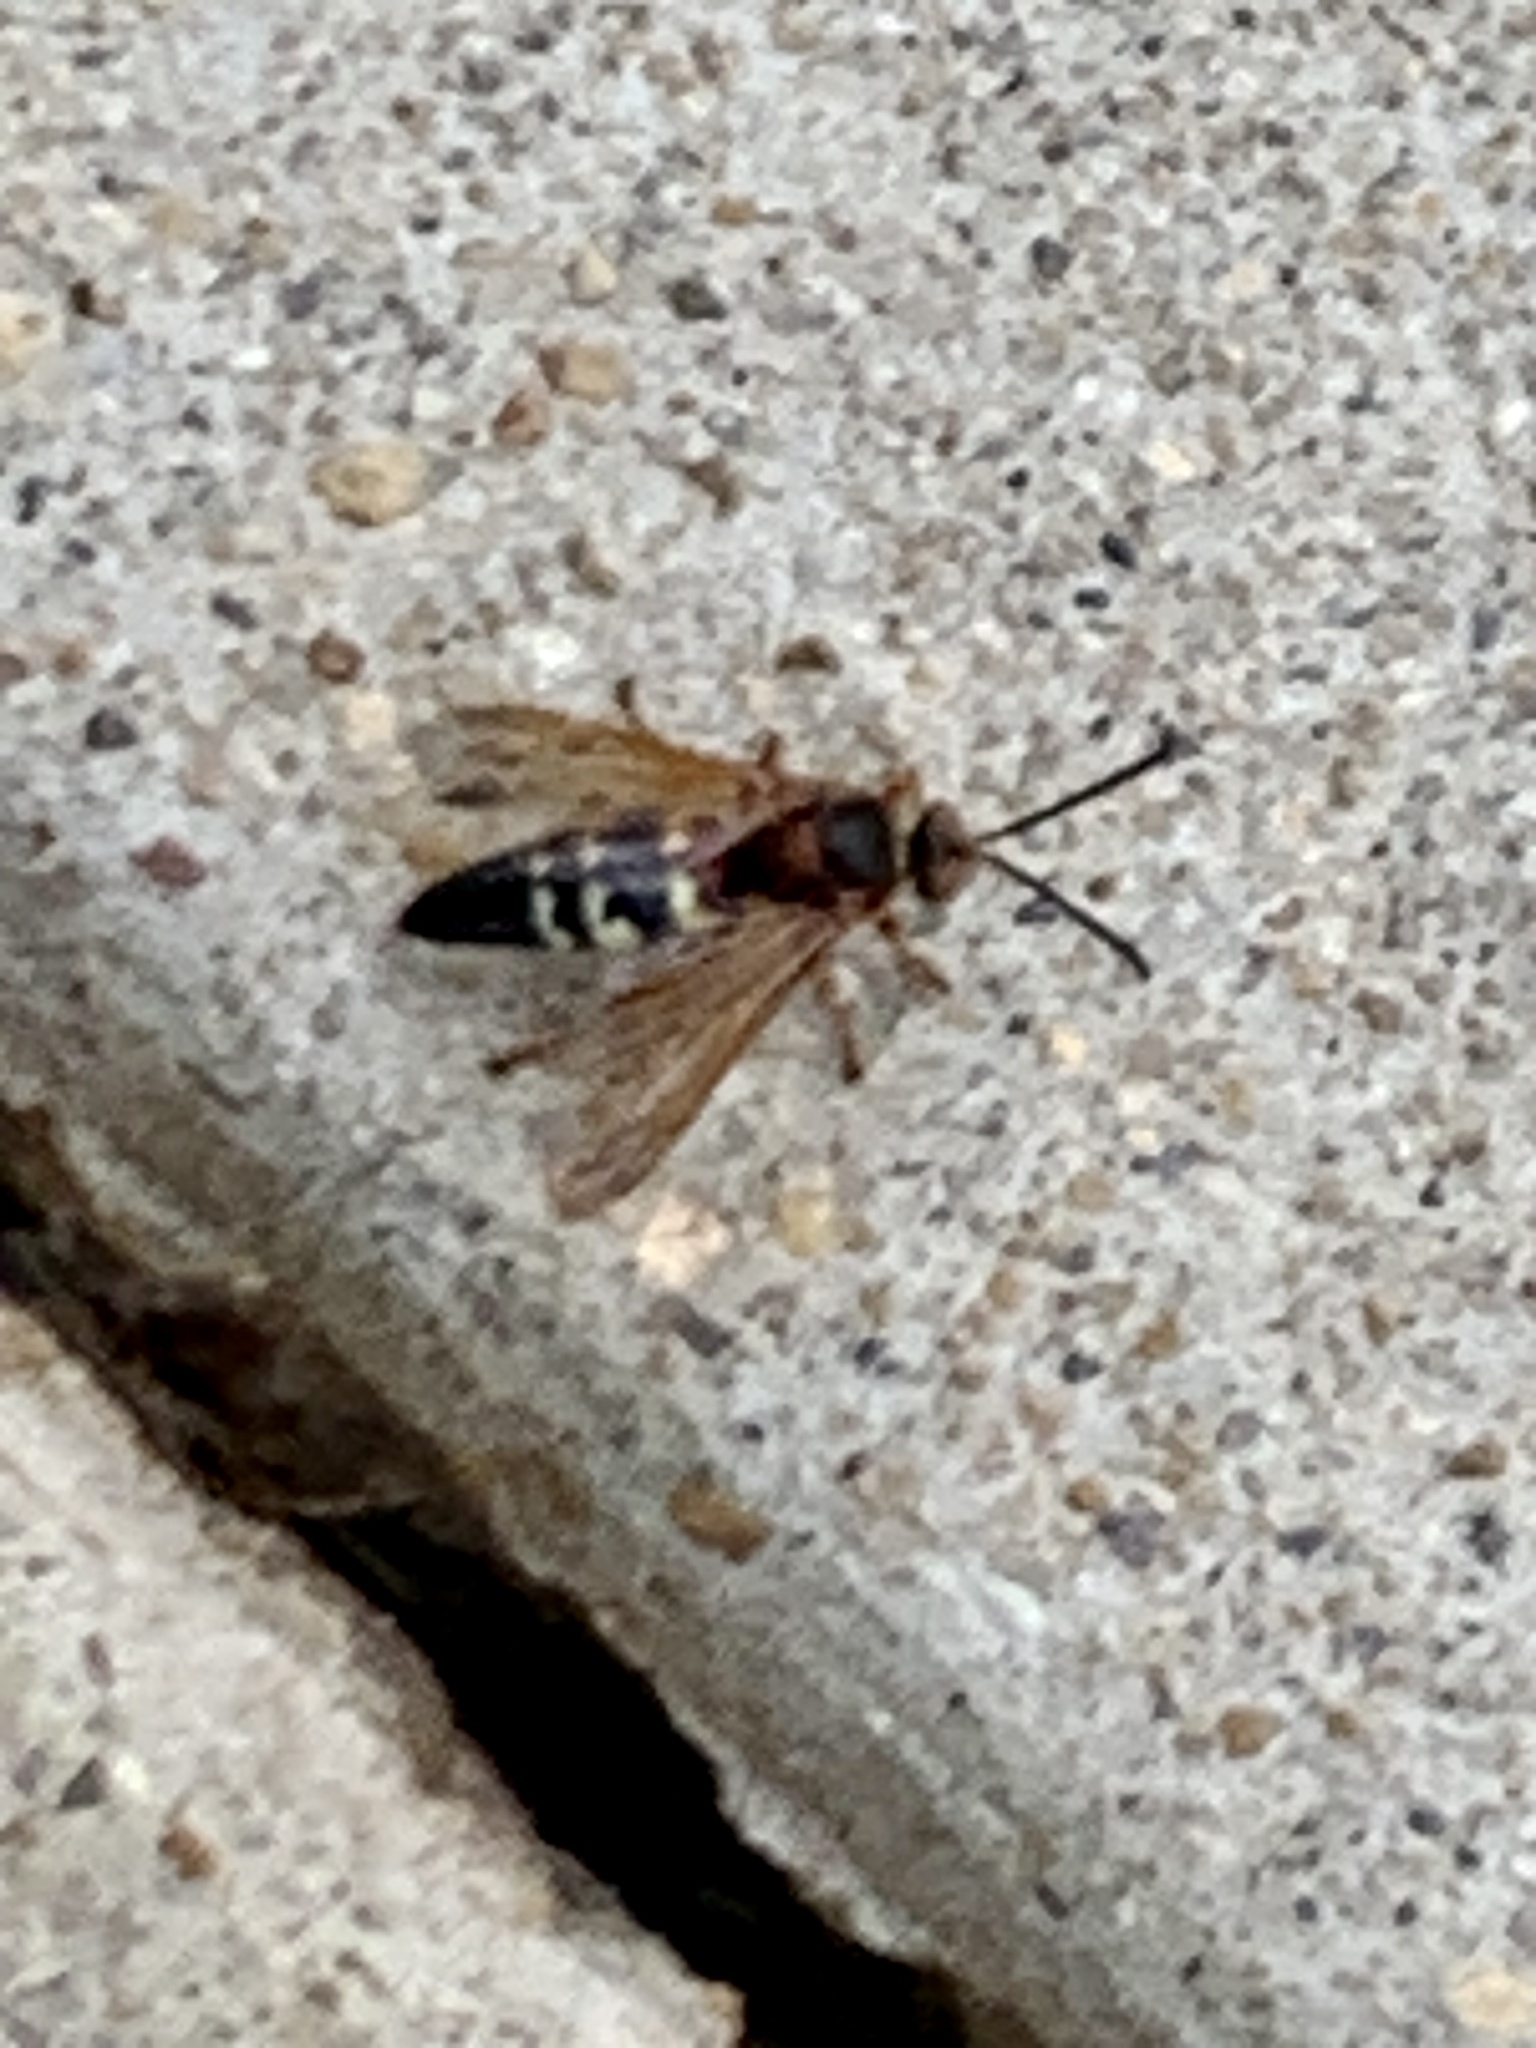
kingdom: Animalia
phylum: Arthropoda
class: Insecta
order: Hymenoptera
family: Crabronidae
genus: Sphecius
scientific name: Sphecius speciosus
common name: Cicada killer
